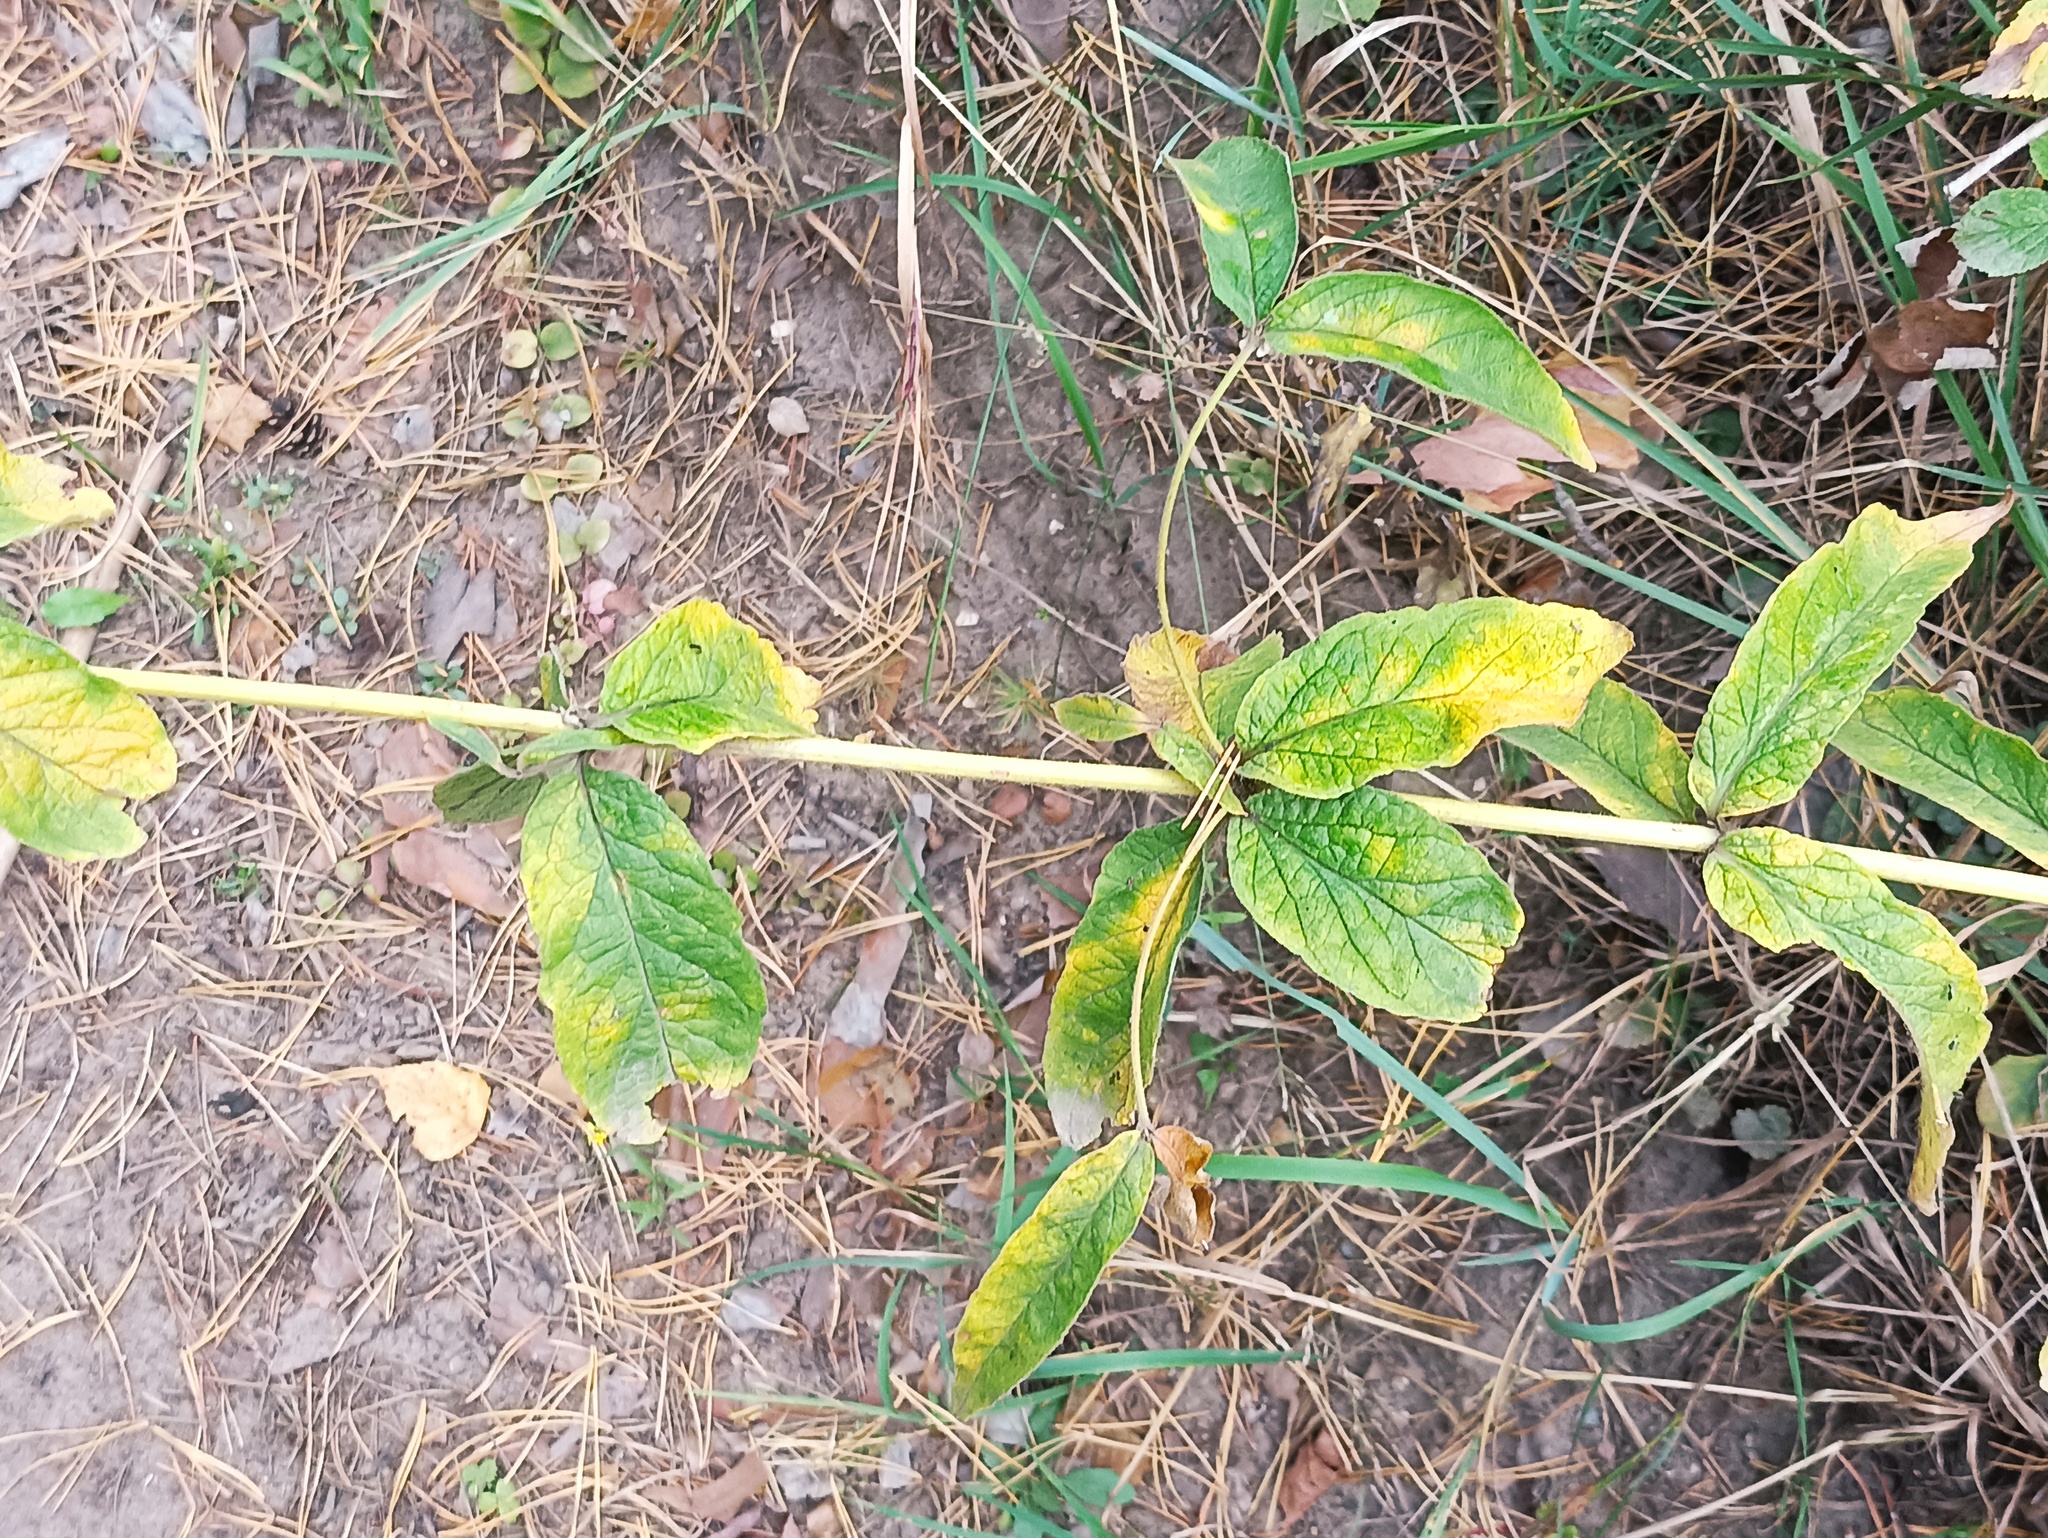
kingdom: Plantae
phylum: Tracheophyta
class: Magnoliopsida
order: Ericales
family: Primulaceae
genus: Lysimachia
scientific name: Lysimachia vulgaris
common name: Yellow loosestrife
